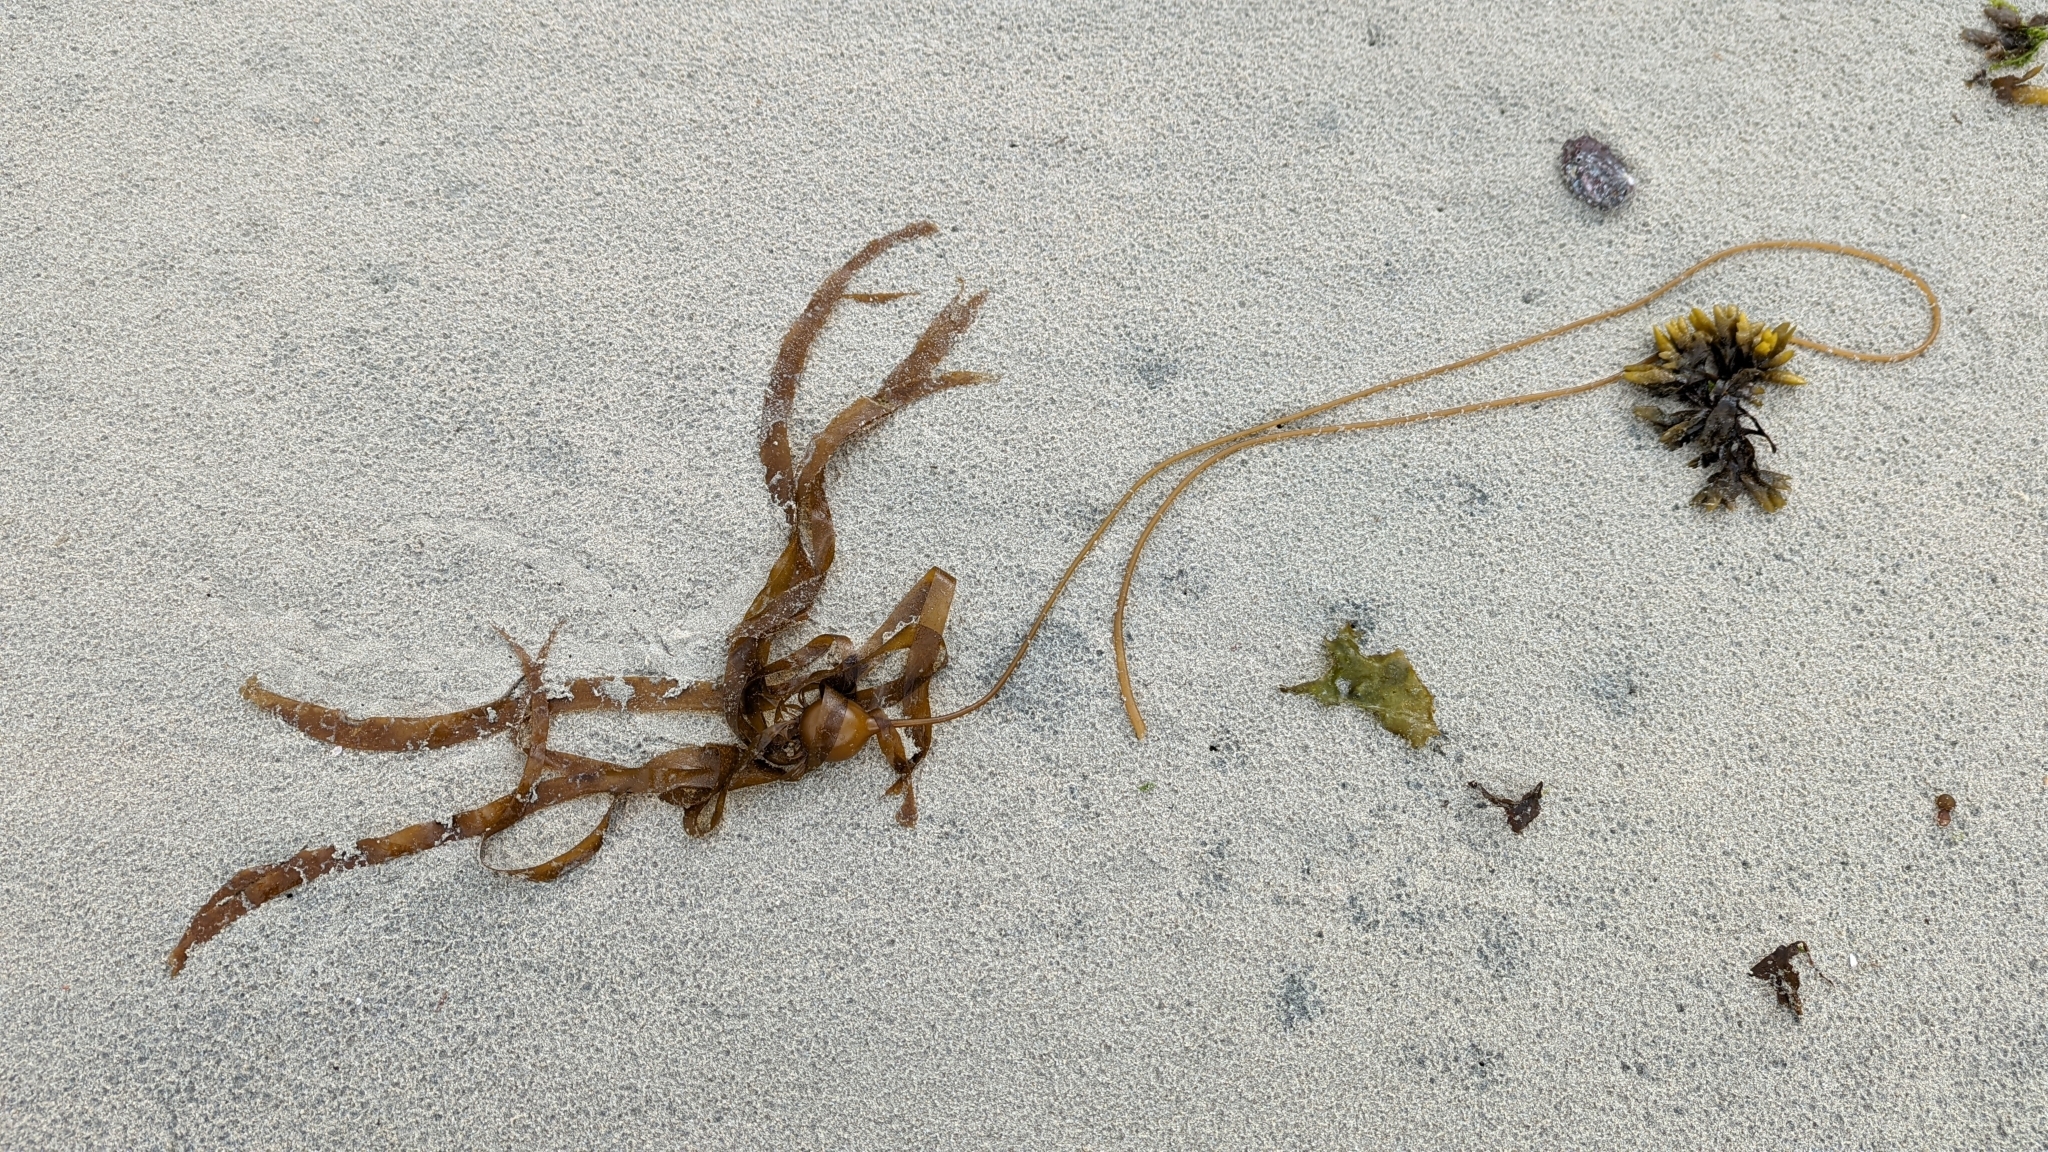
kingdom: Chromista
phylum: Ochrophyta
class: Phaeophyceae
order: Laminariales
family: Laminariaceae
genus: Nereocystis
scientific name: Nereocystis luetkeana
